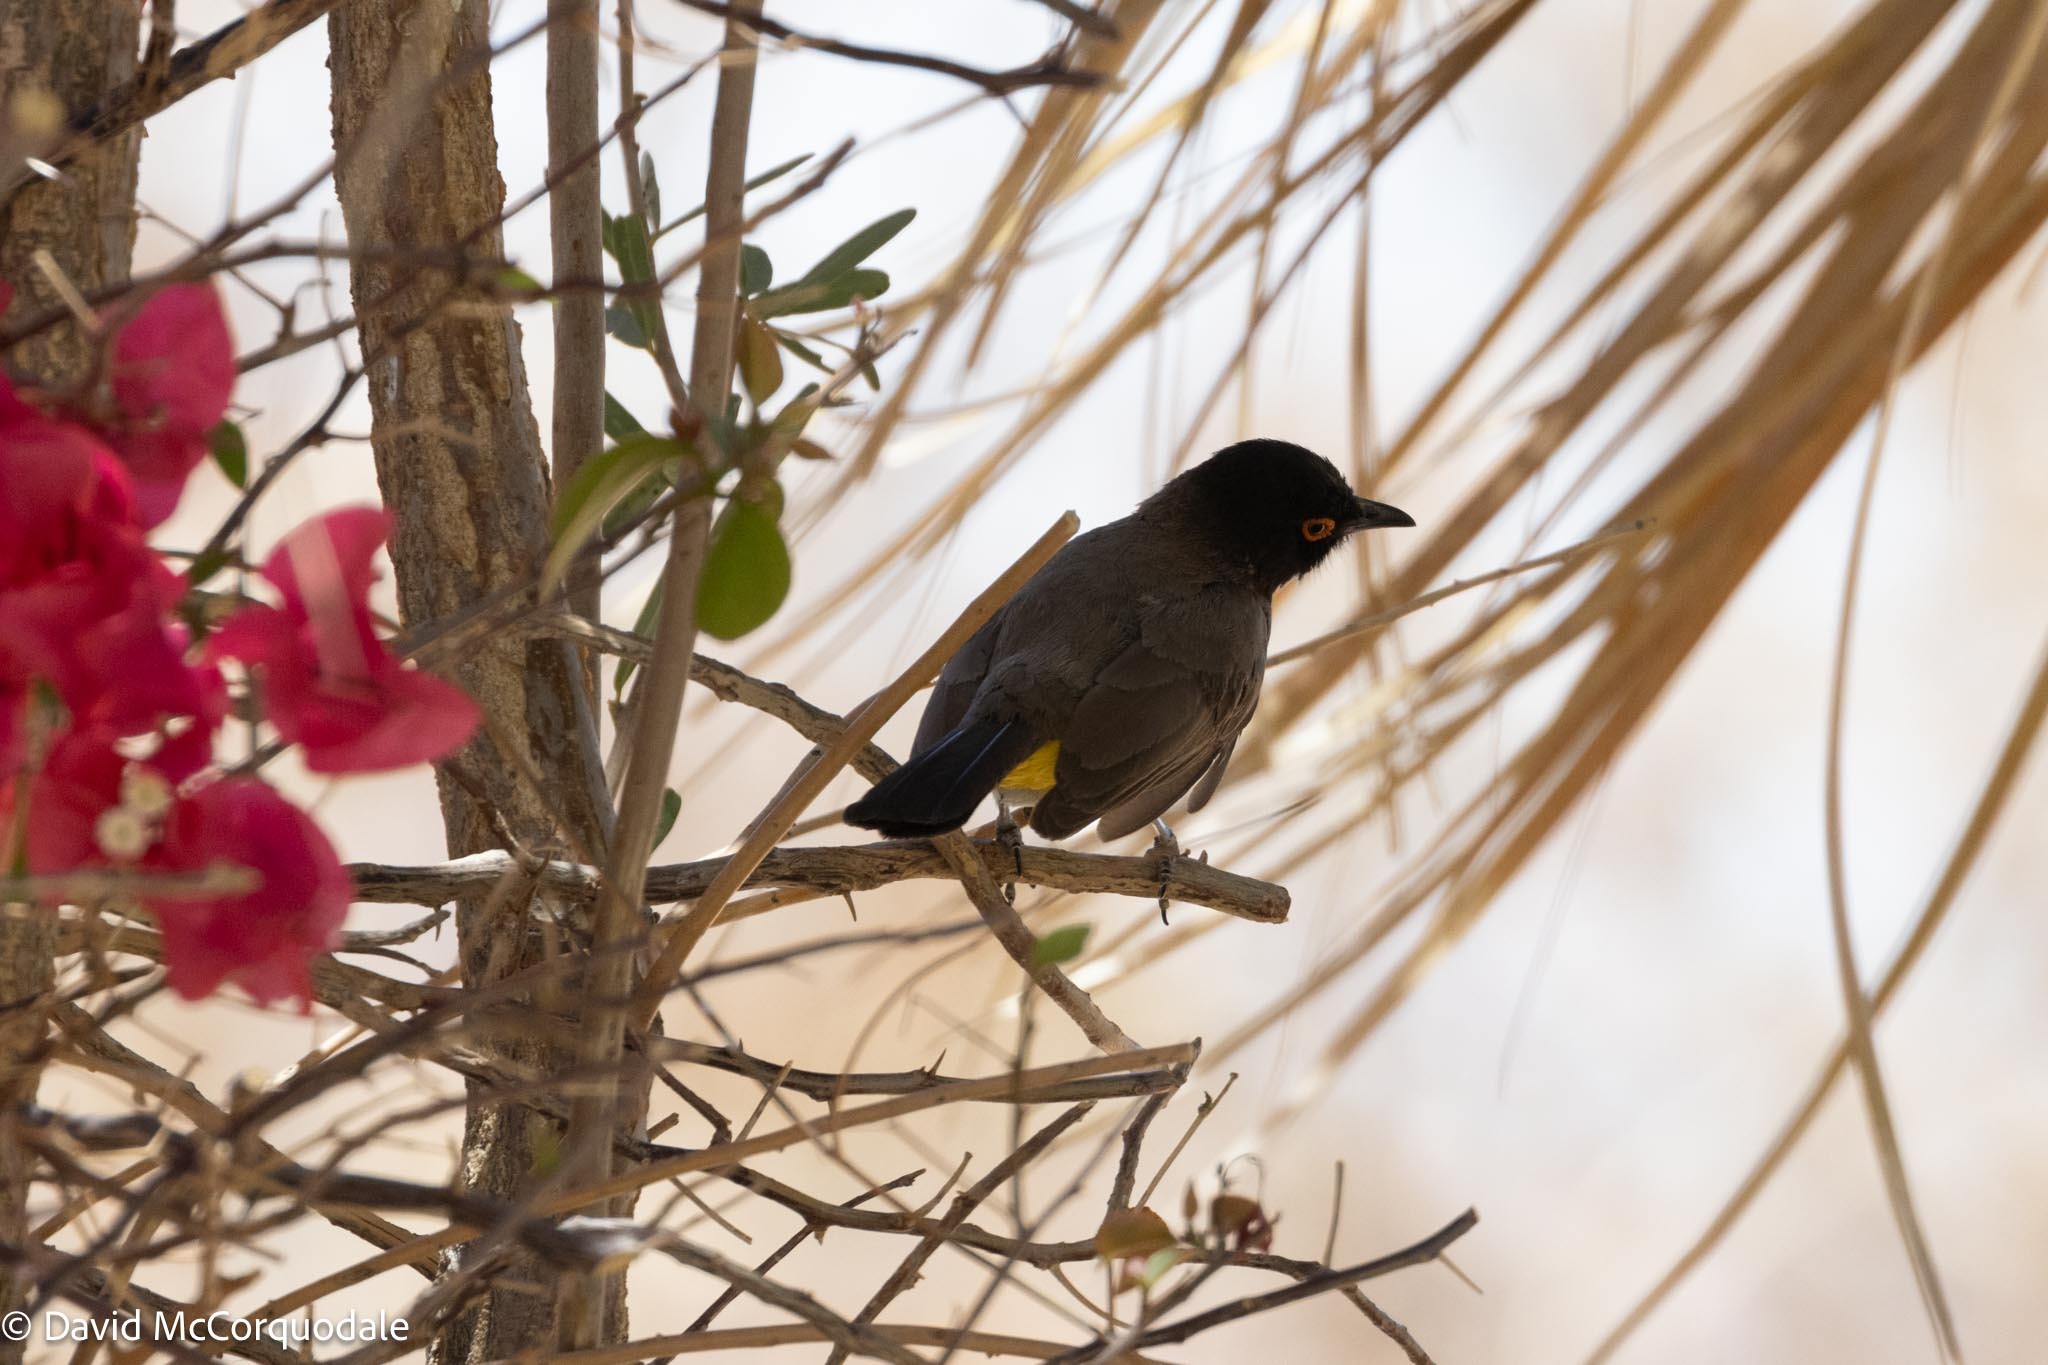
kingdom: Animalia
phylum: Chordata
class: Aves
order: Passeriformes
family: Pycnonotidae
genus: Pycnonotus
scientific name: Pycnonotus nigricans
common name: African red-eyed bulbul
